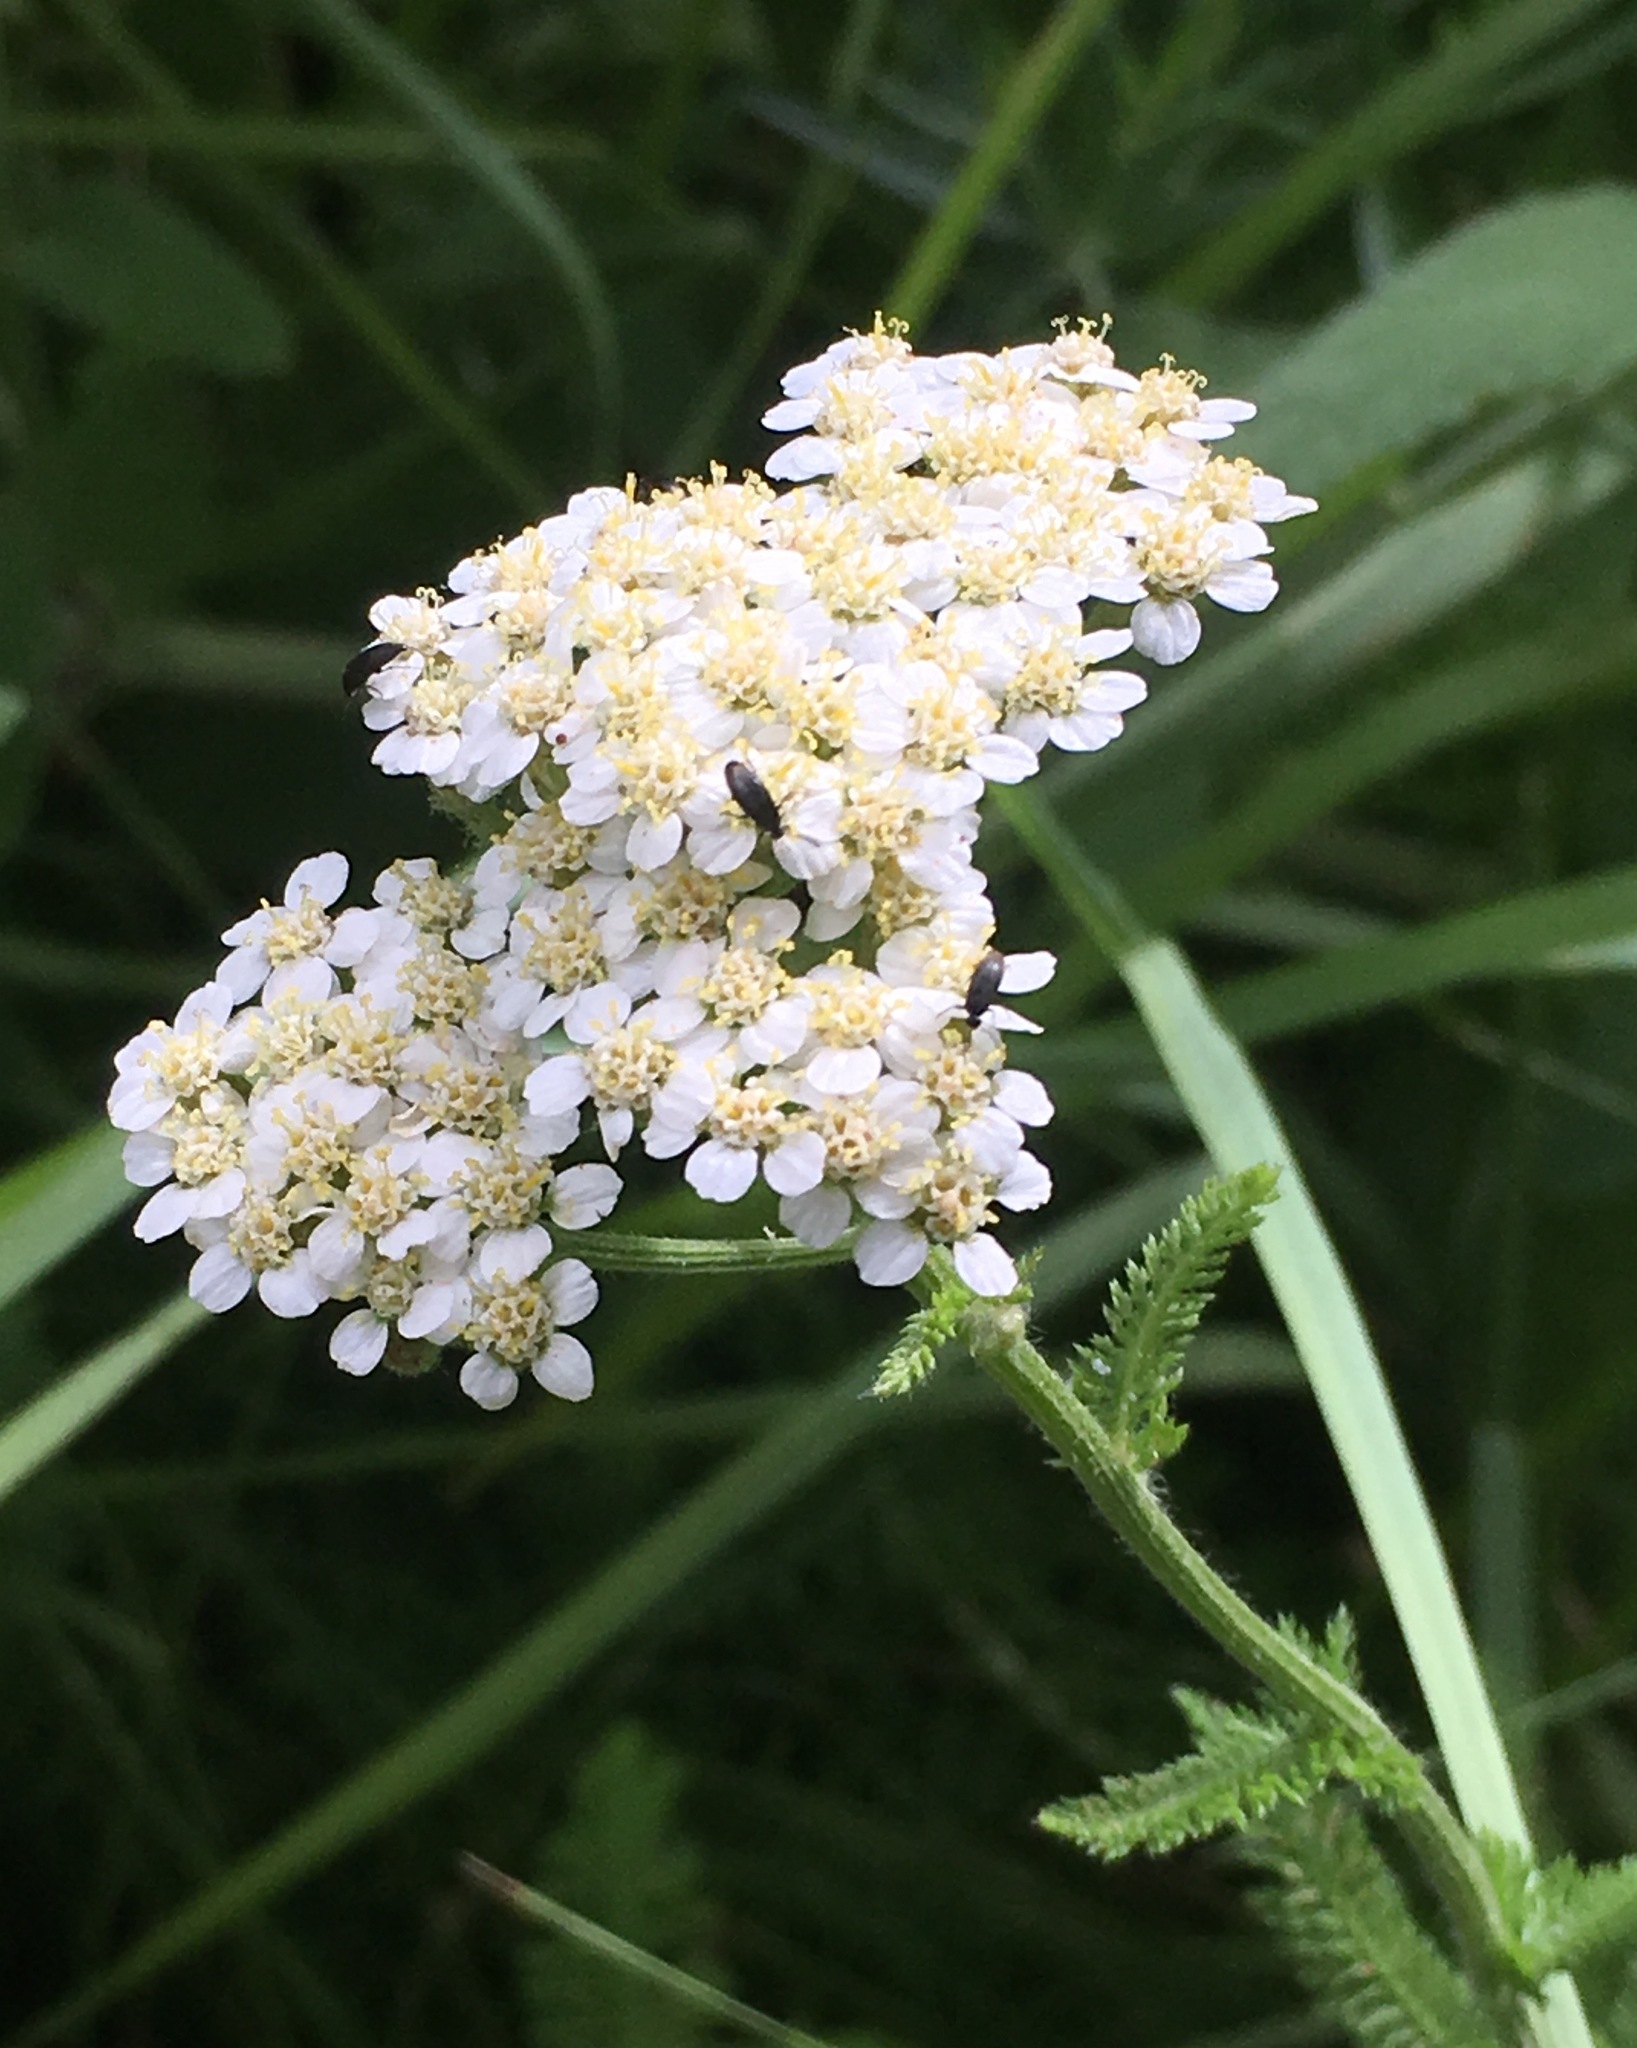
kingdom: Plantae
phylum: Tracheophyta
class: Magnoliopsida
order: Asterales
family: Asteraceae
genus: Achillea
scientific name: Achillea millefolium
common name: Yarrow
